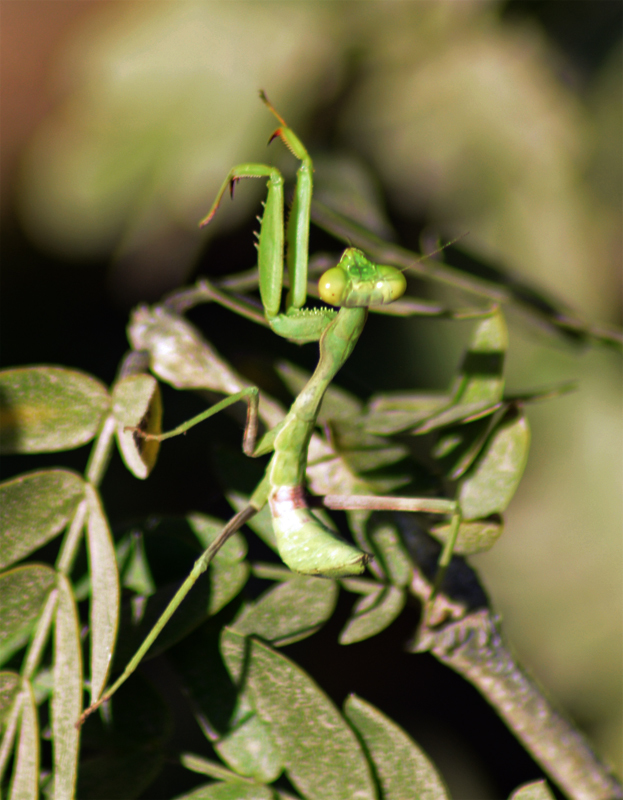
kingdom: Animalia
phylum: Arthropoda
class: Insecta
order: Mantodea
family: Mantidae
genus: Stagmomantis
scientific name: Stagmomantis limbata
